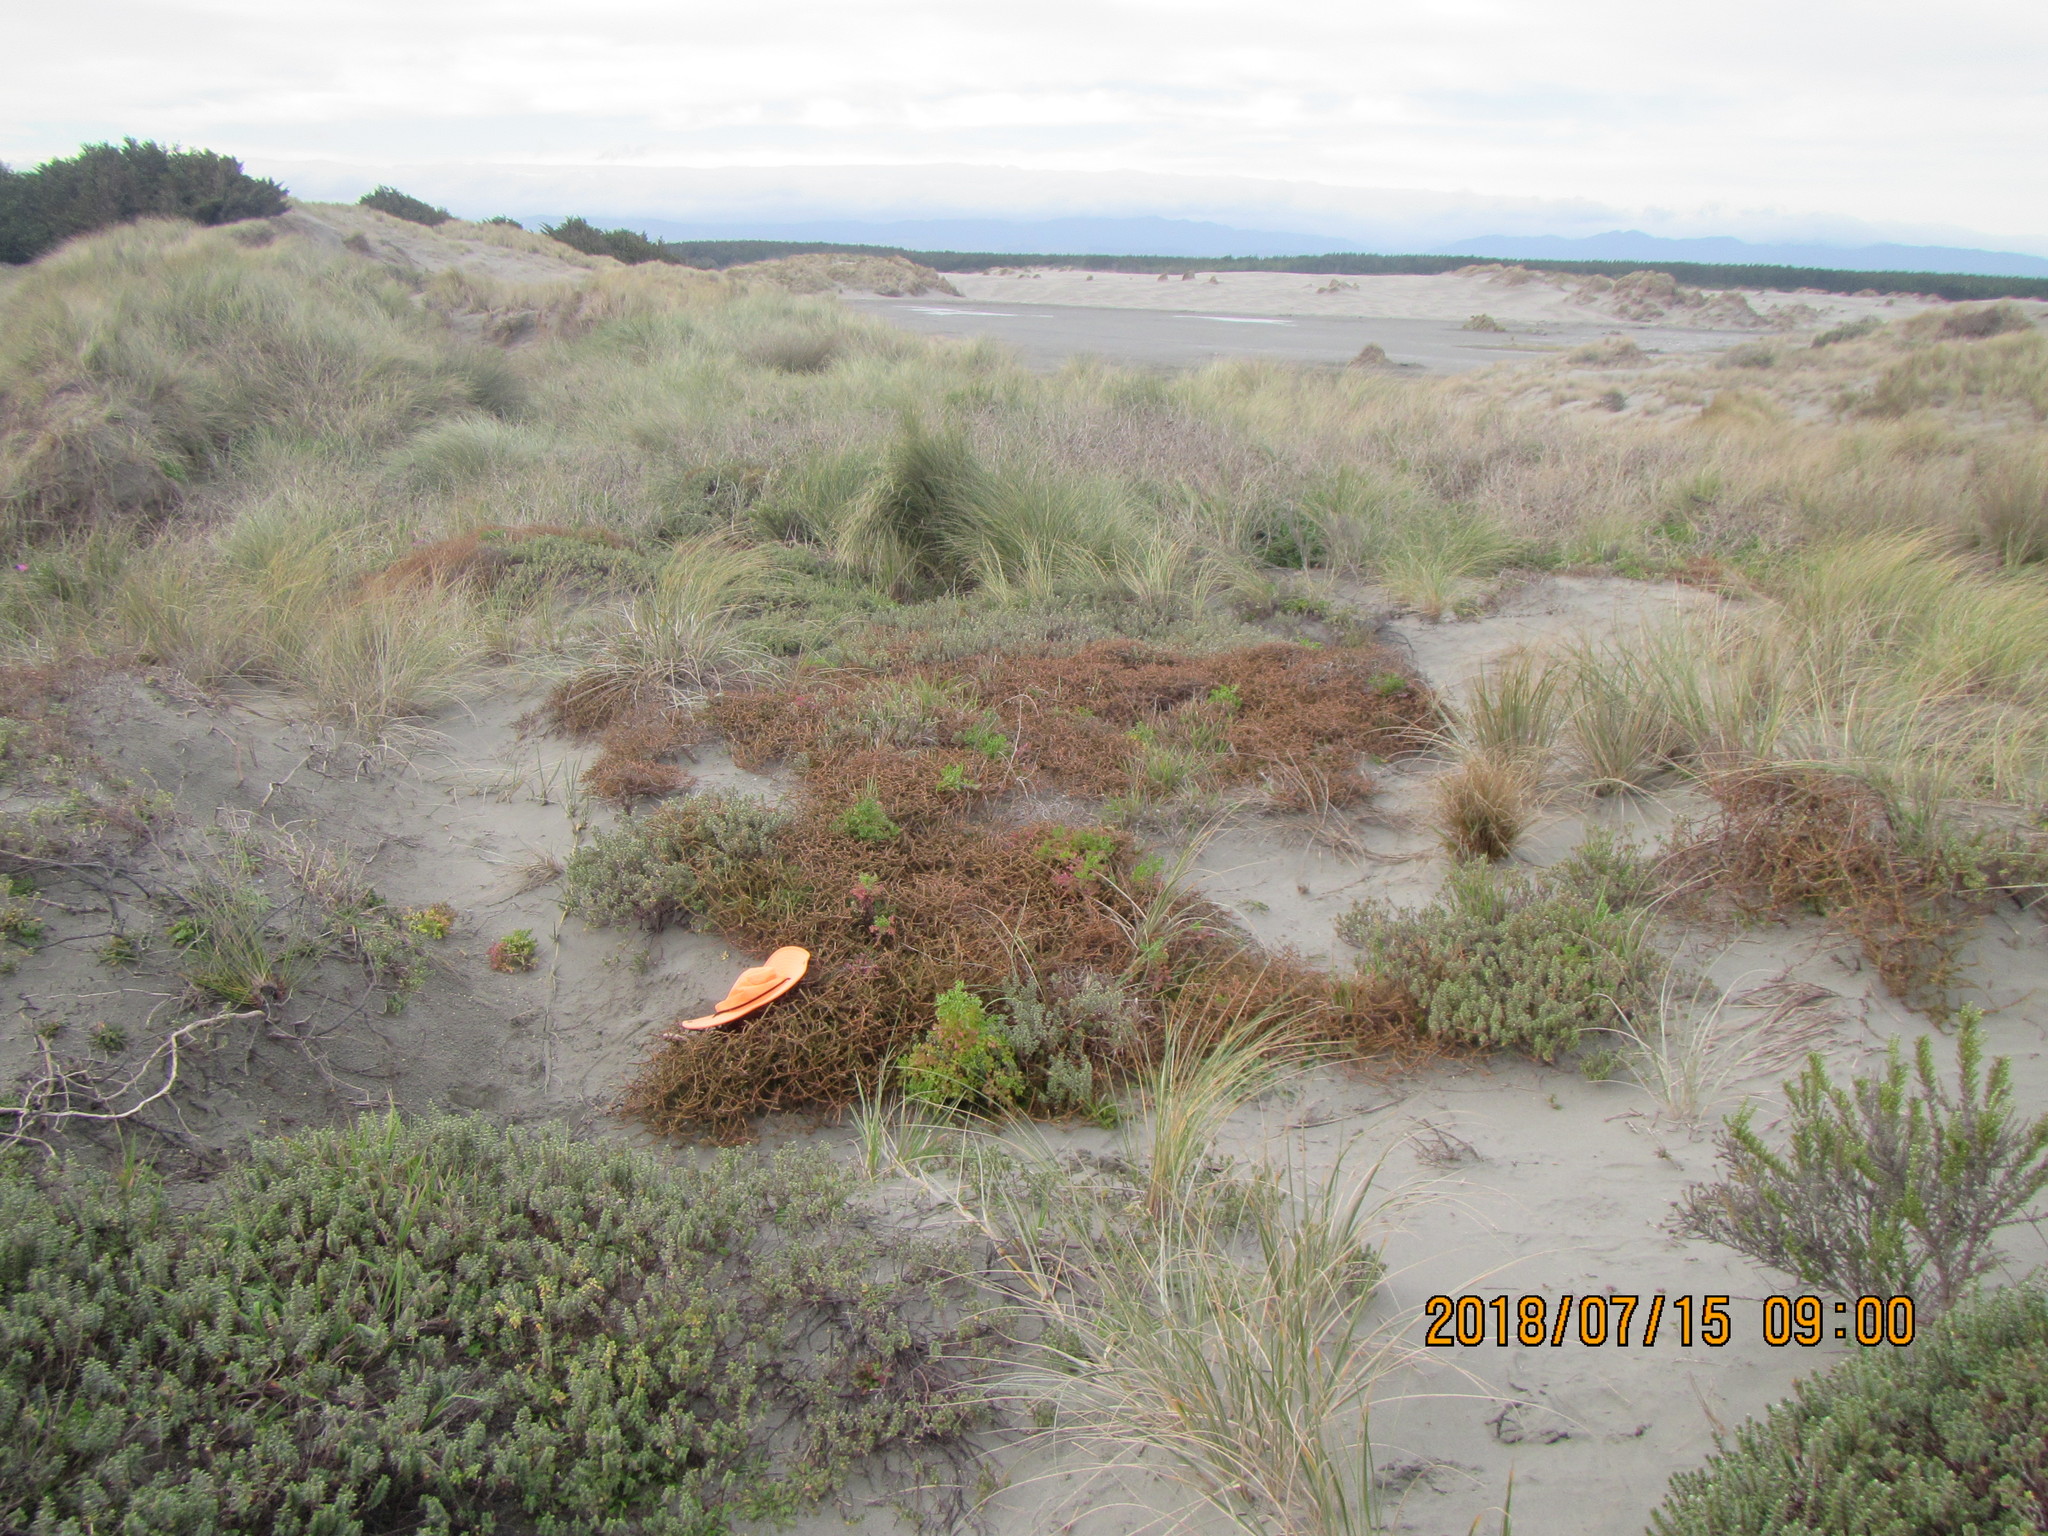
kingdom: Plantae
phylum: Tracheophyta
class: Magnoliopsida
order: Gentianales
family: Rubiaceae
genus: Coprosma
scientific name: Coprosma acerosa
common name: Sand coprosma
